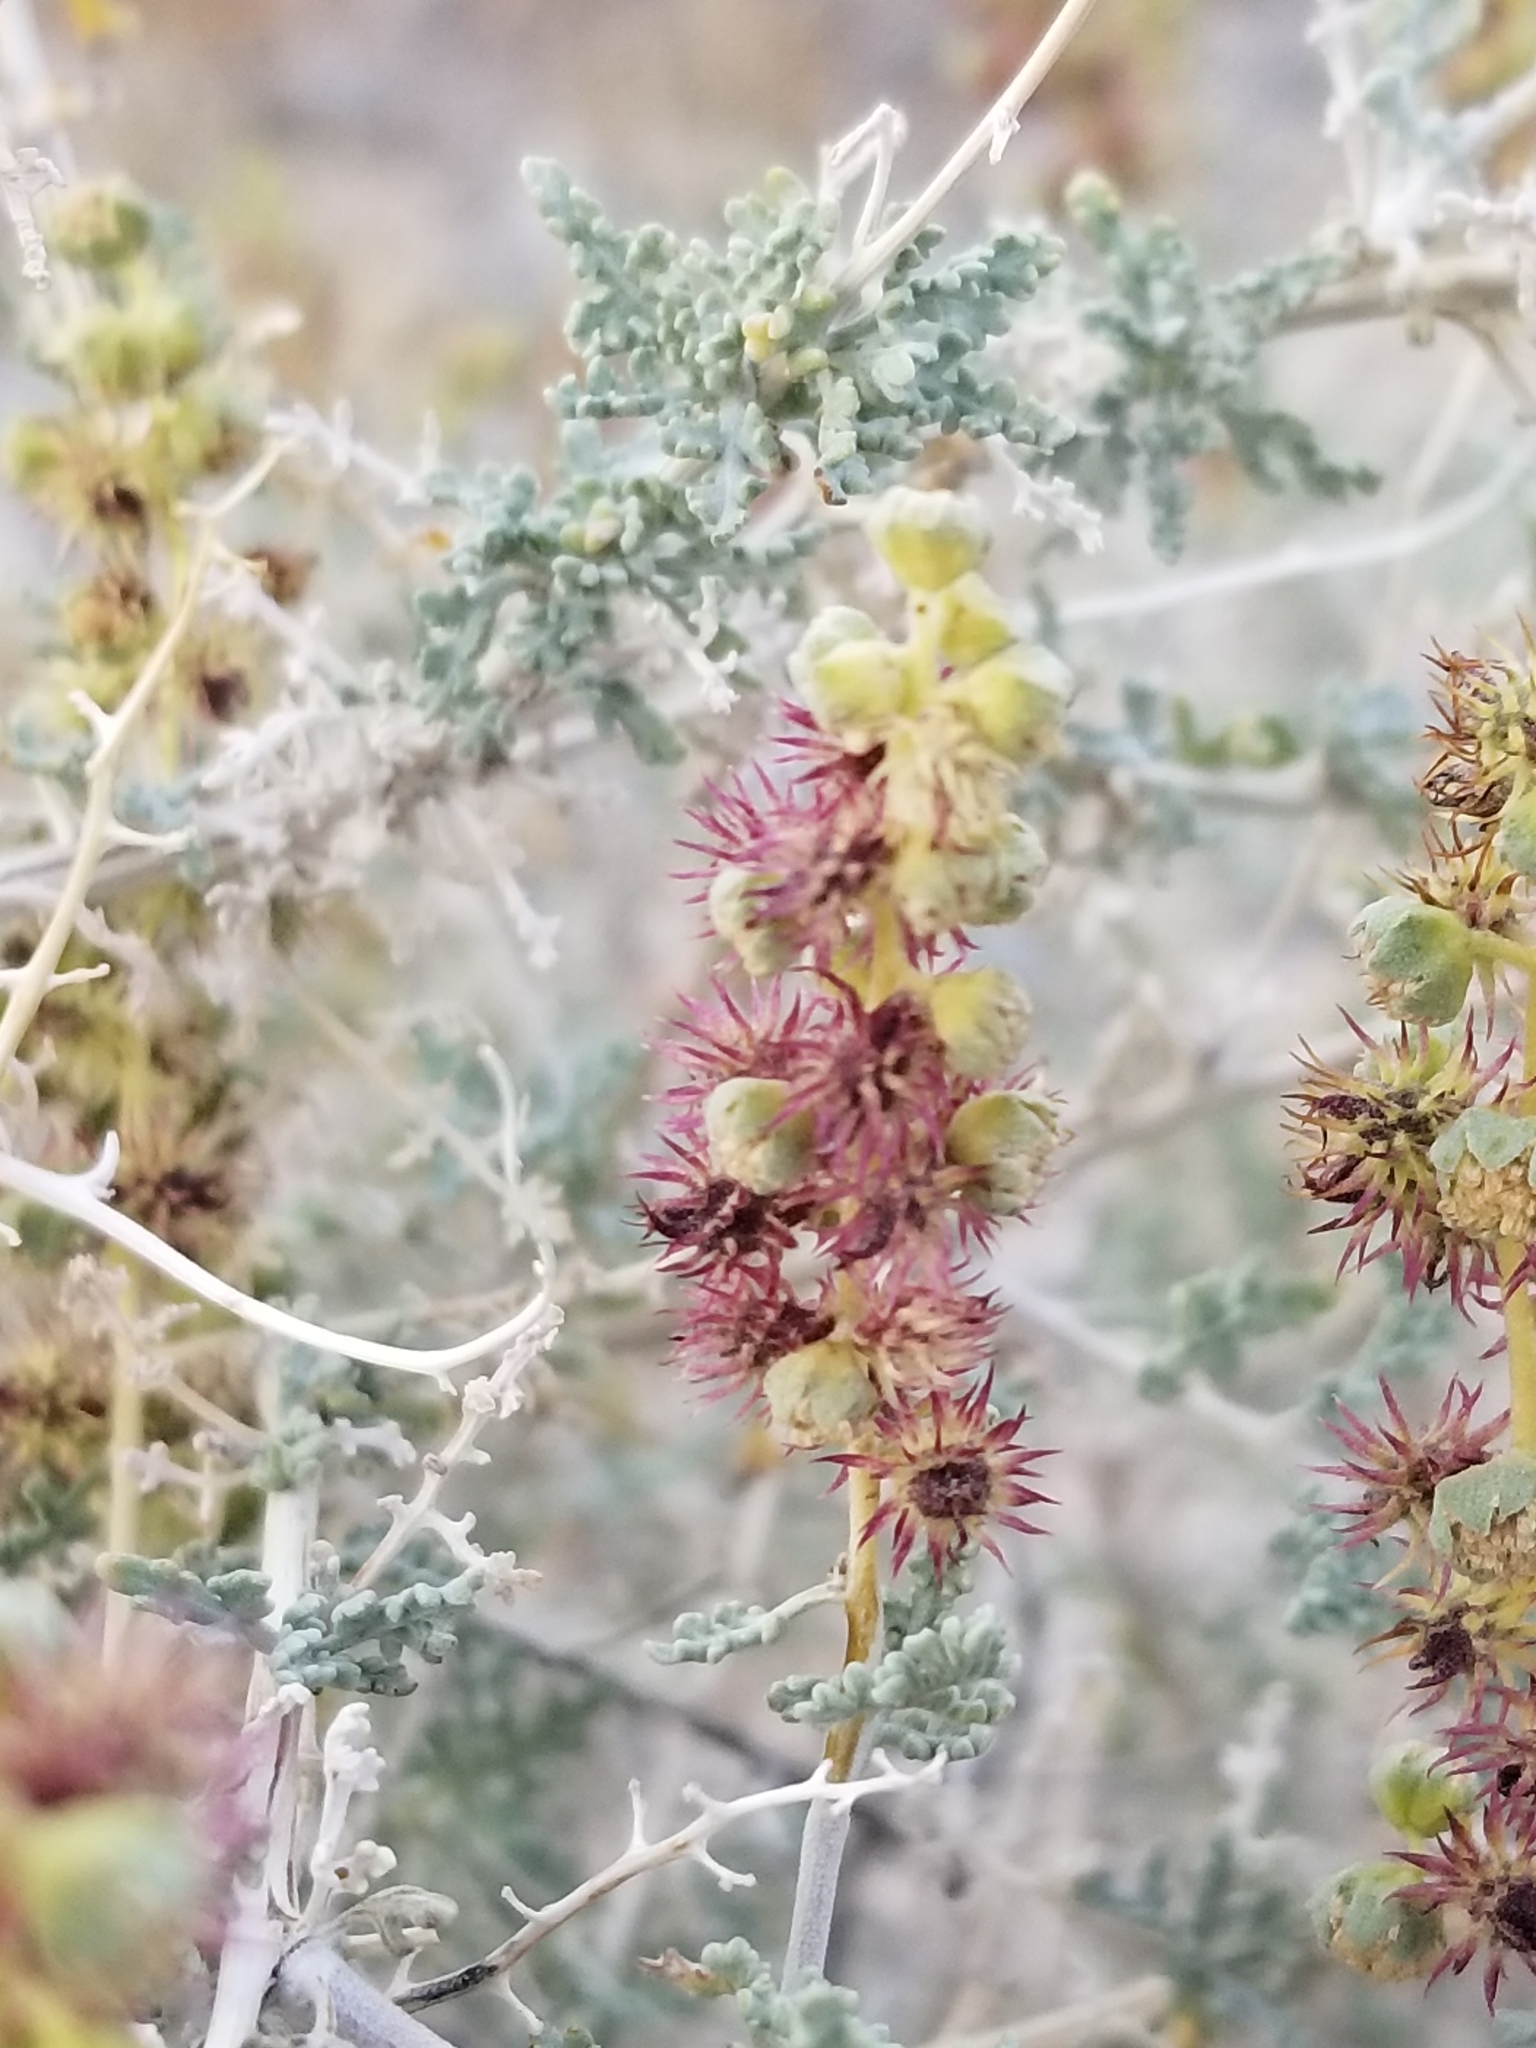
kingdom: Plantae
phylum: Tracheophyta
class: Magnoliopsida
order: Asterales
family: Asteraceae
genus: Ambrosia
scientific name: Ambrosia dumosa
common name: Bur-sage
